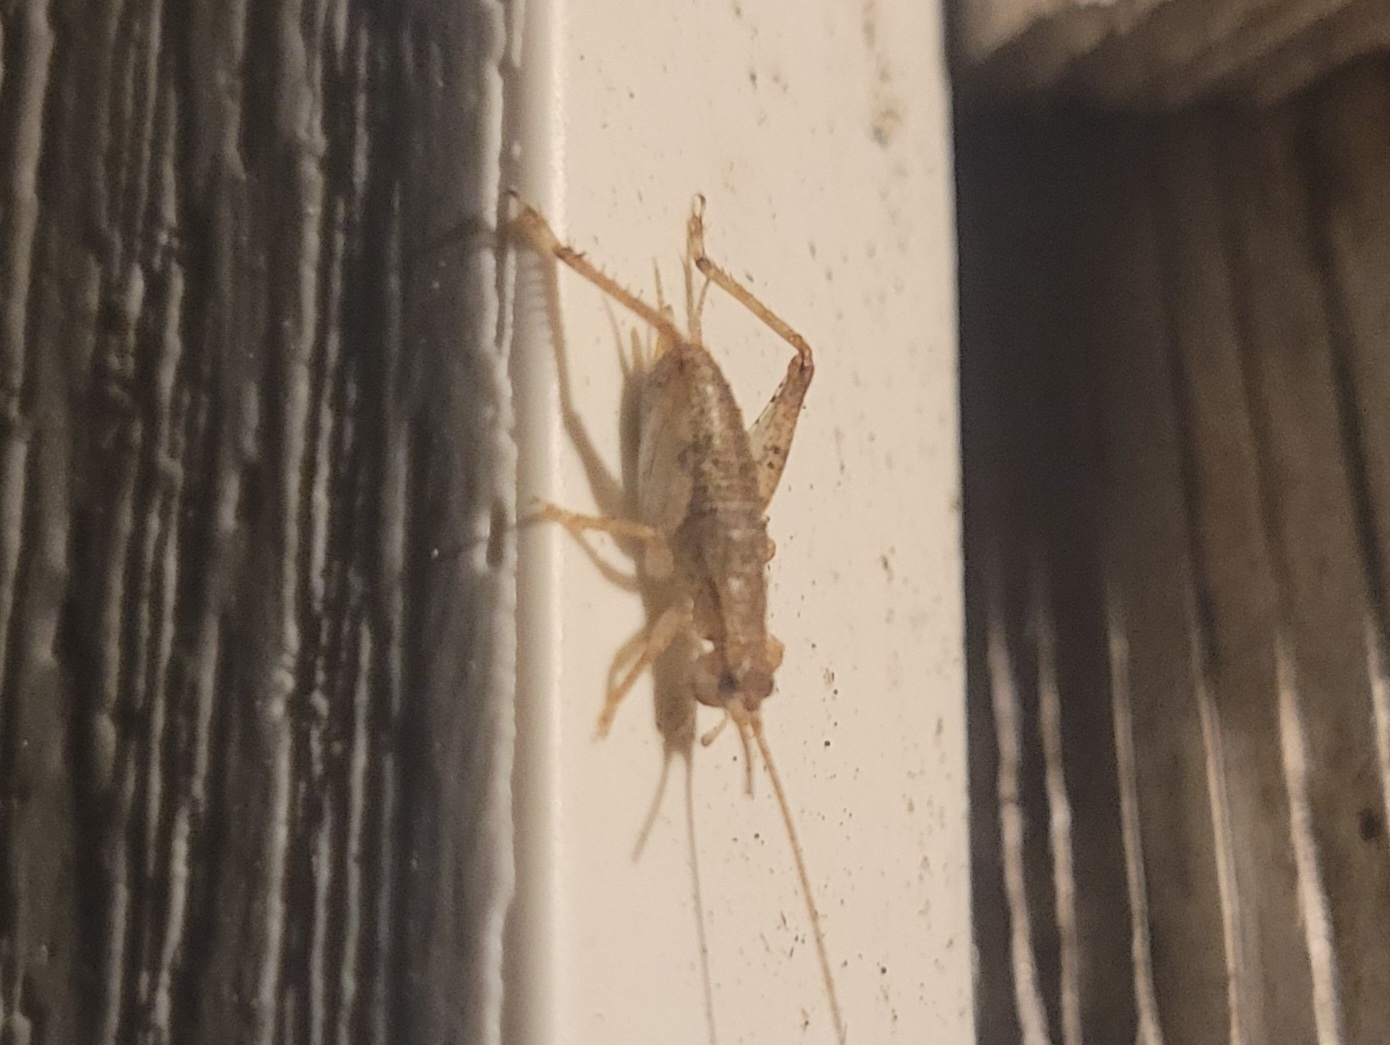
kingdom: Animalia
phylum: Arthropoda
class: Insecta
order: Orthoptera
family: Gryllidae
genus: Hapithus
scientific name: Hapithus saltator
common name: Jumping bush cricket
